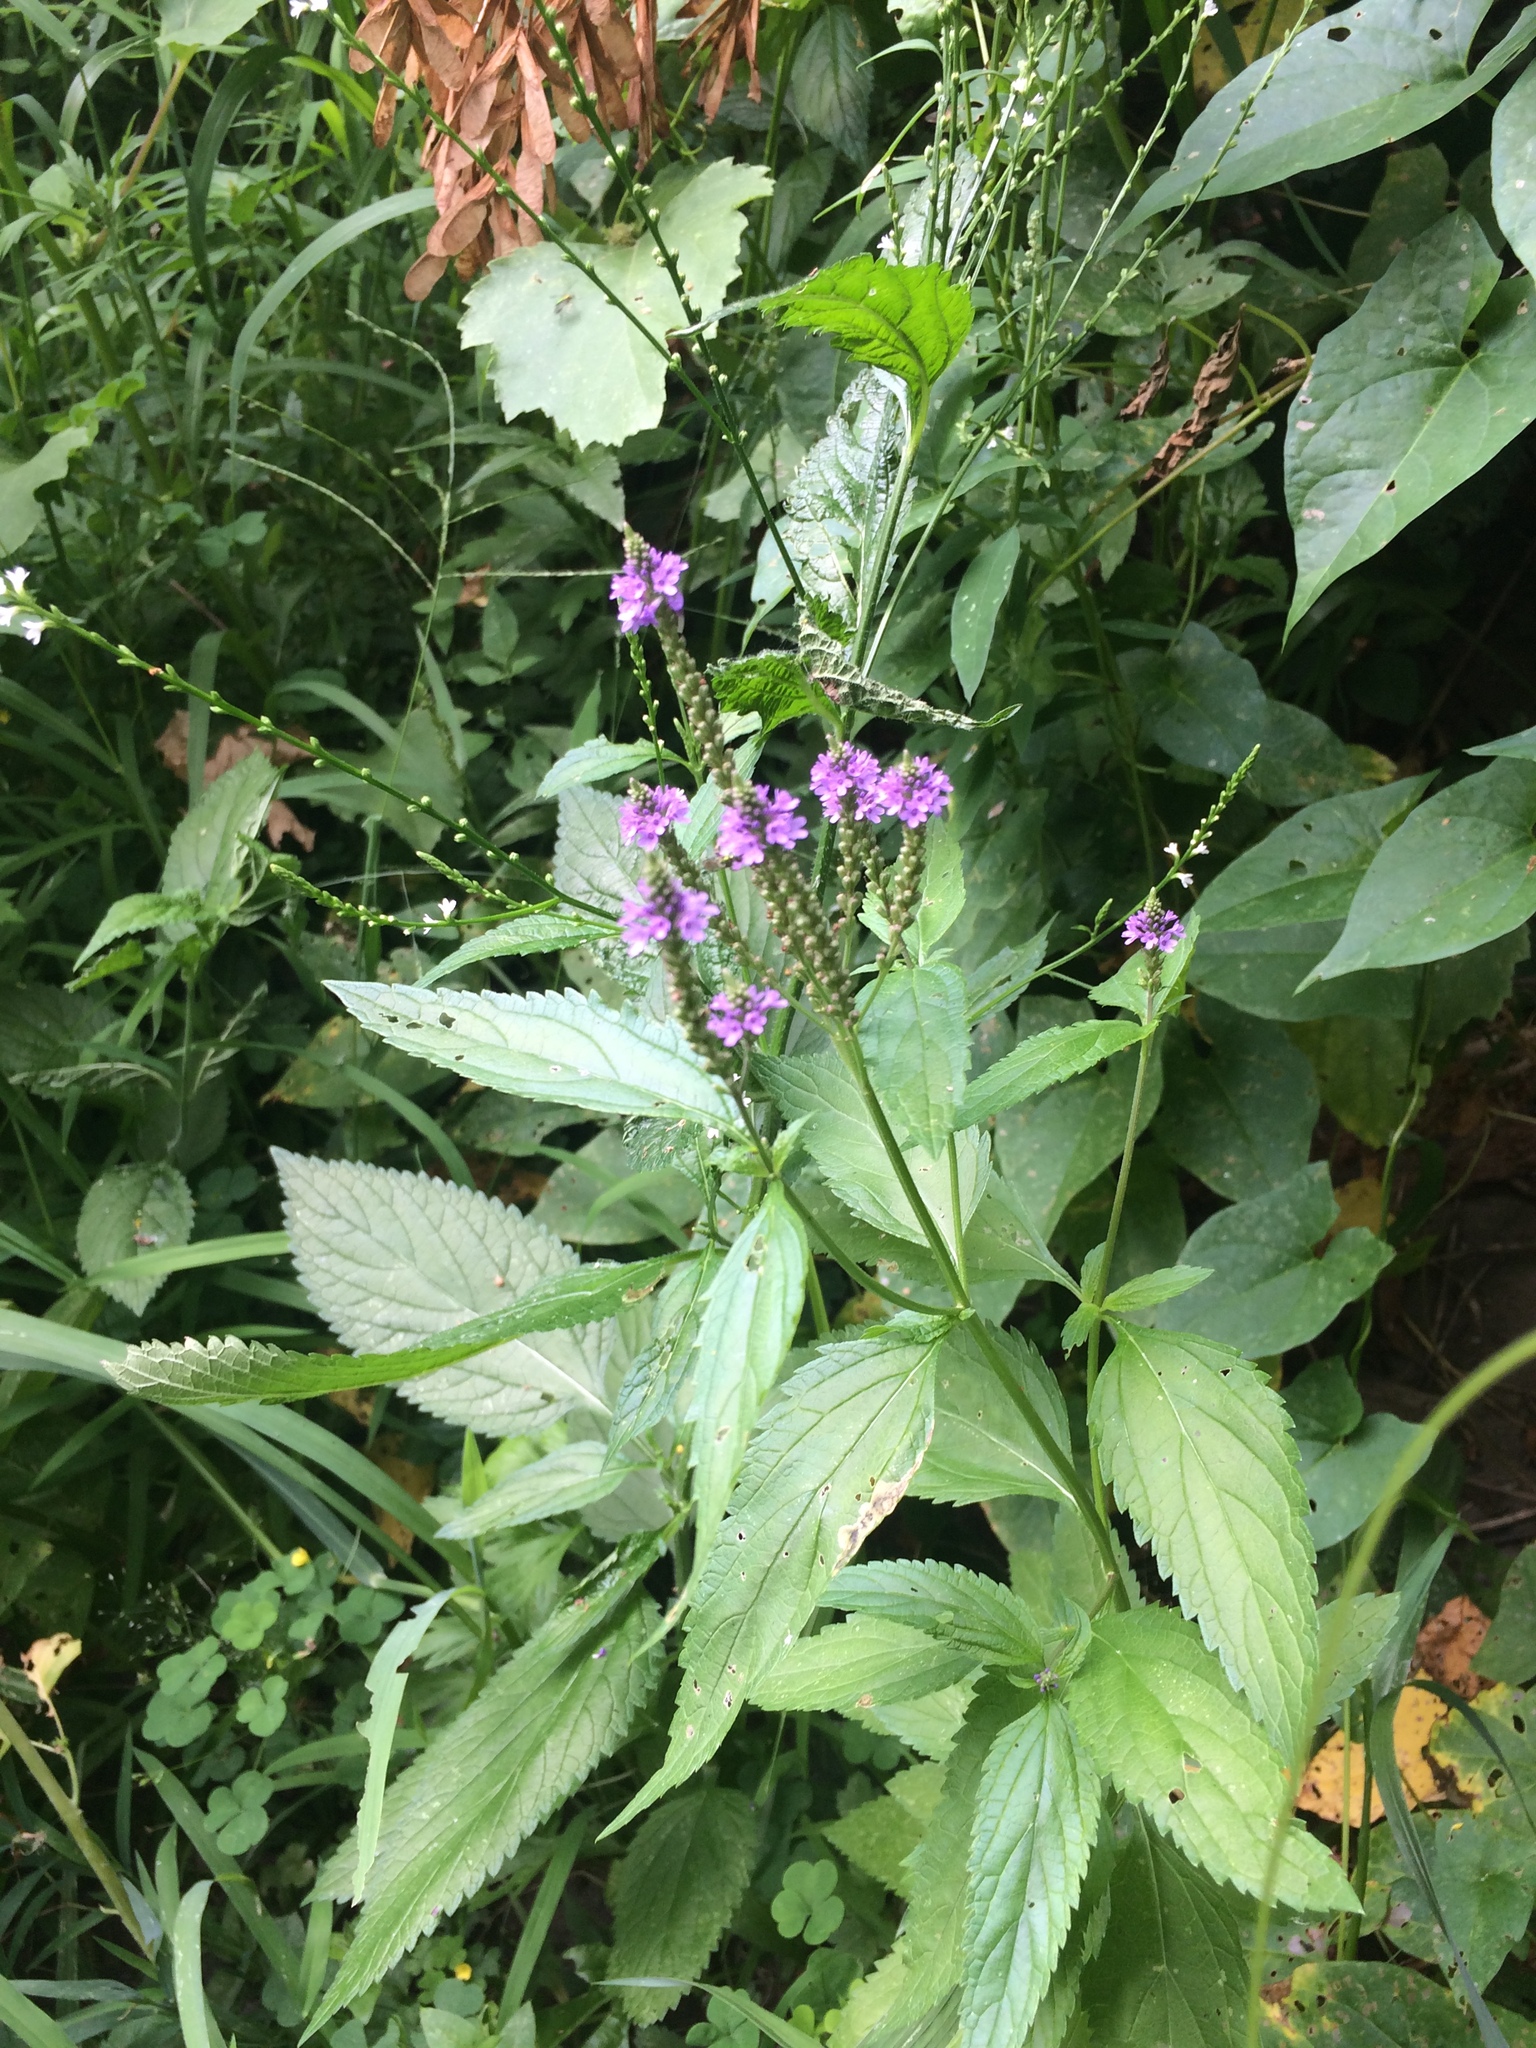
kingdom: Plantae
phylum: Tracheophyta
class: Magnoliopsida
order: Lamiales
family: Verbenaceae
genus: Verbena
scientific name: Verbena hastata
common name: American blue vervain
